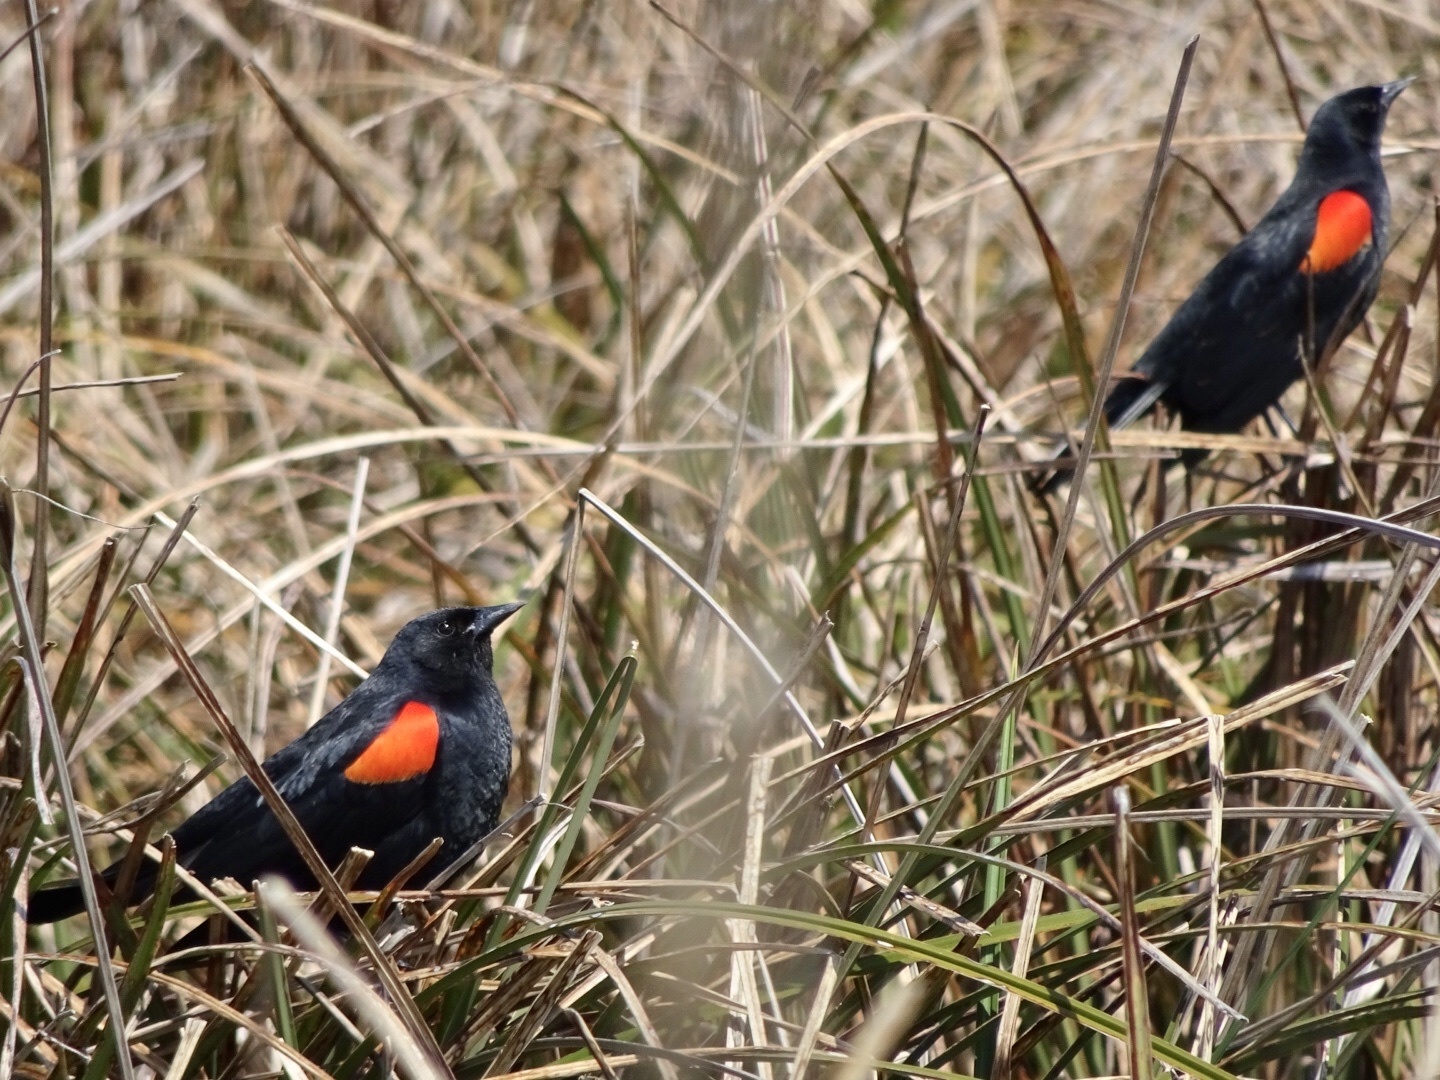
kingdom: Animalia
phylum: Chordata
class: Aves
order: Passeriformes
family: Icteridae
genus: Agelaius
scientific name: Agelaius phoeniceus
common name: Red-winged blackbird
